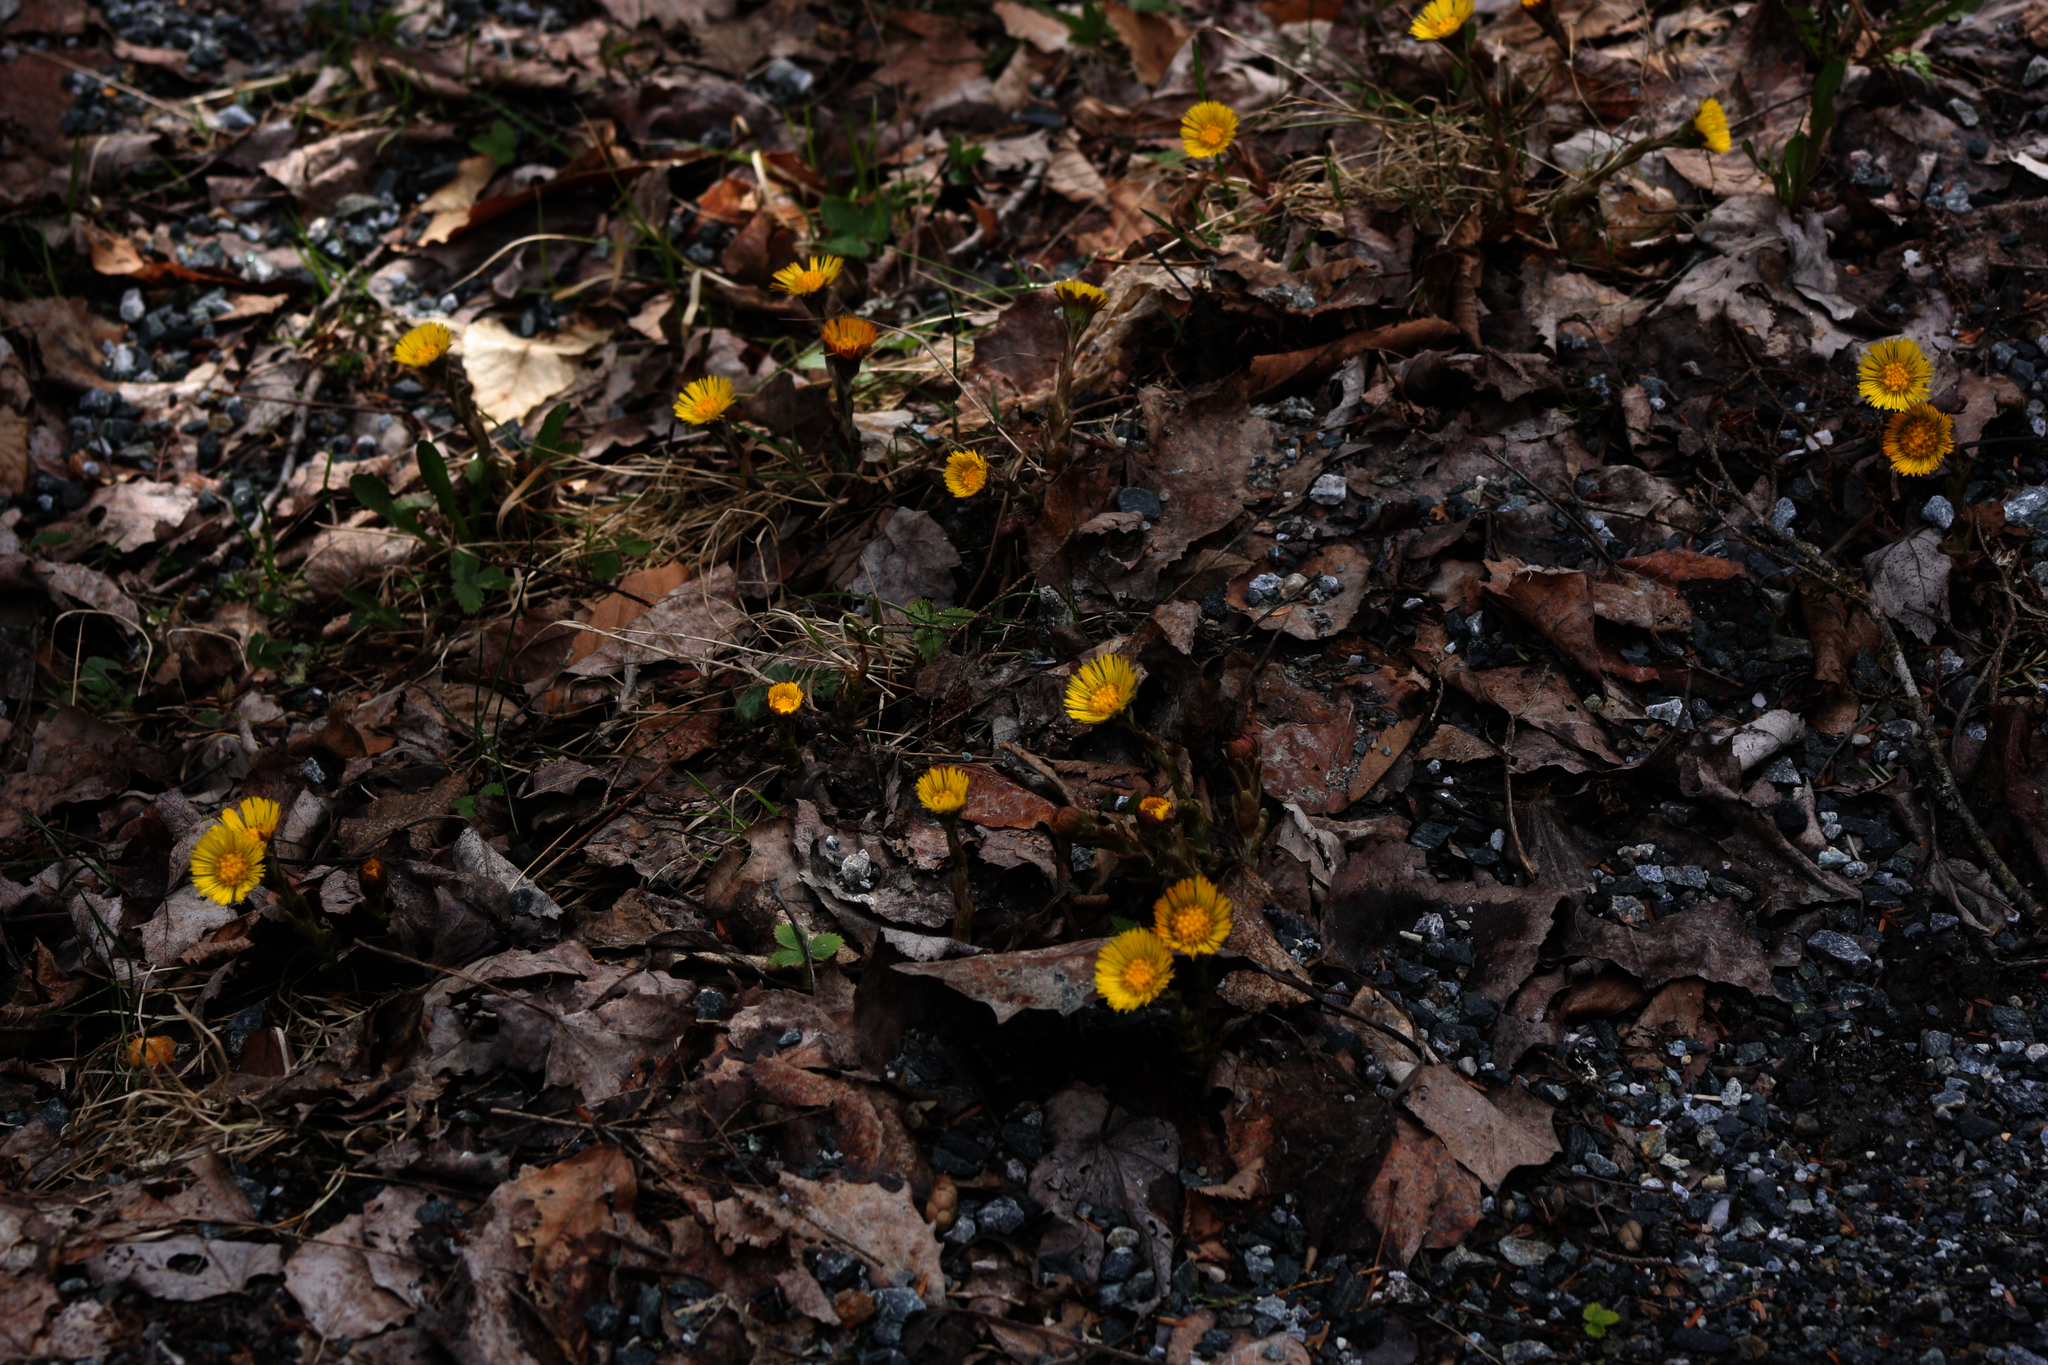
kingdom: Plantae
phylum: Tracheophyta
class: Magnoliopsida
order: Asterales
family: Asteraceae
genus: Tussilago
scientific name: Tussilago farfara
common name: Coltsfoot
